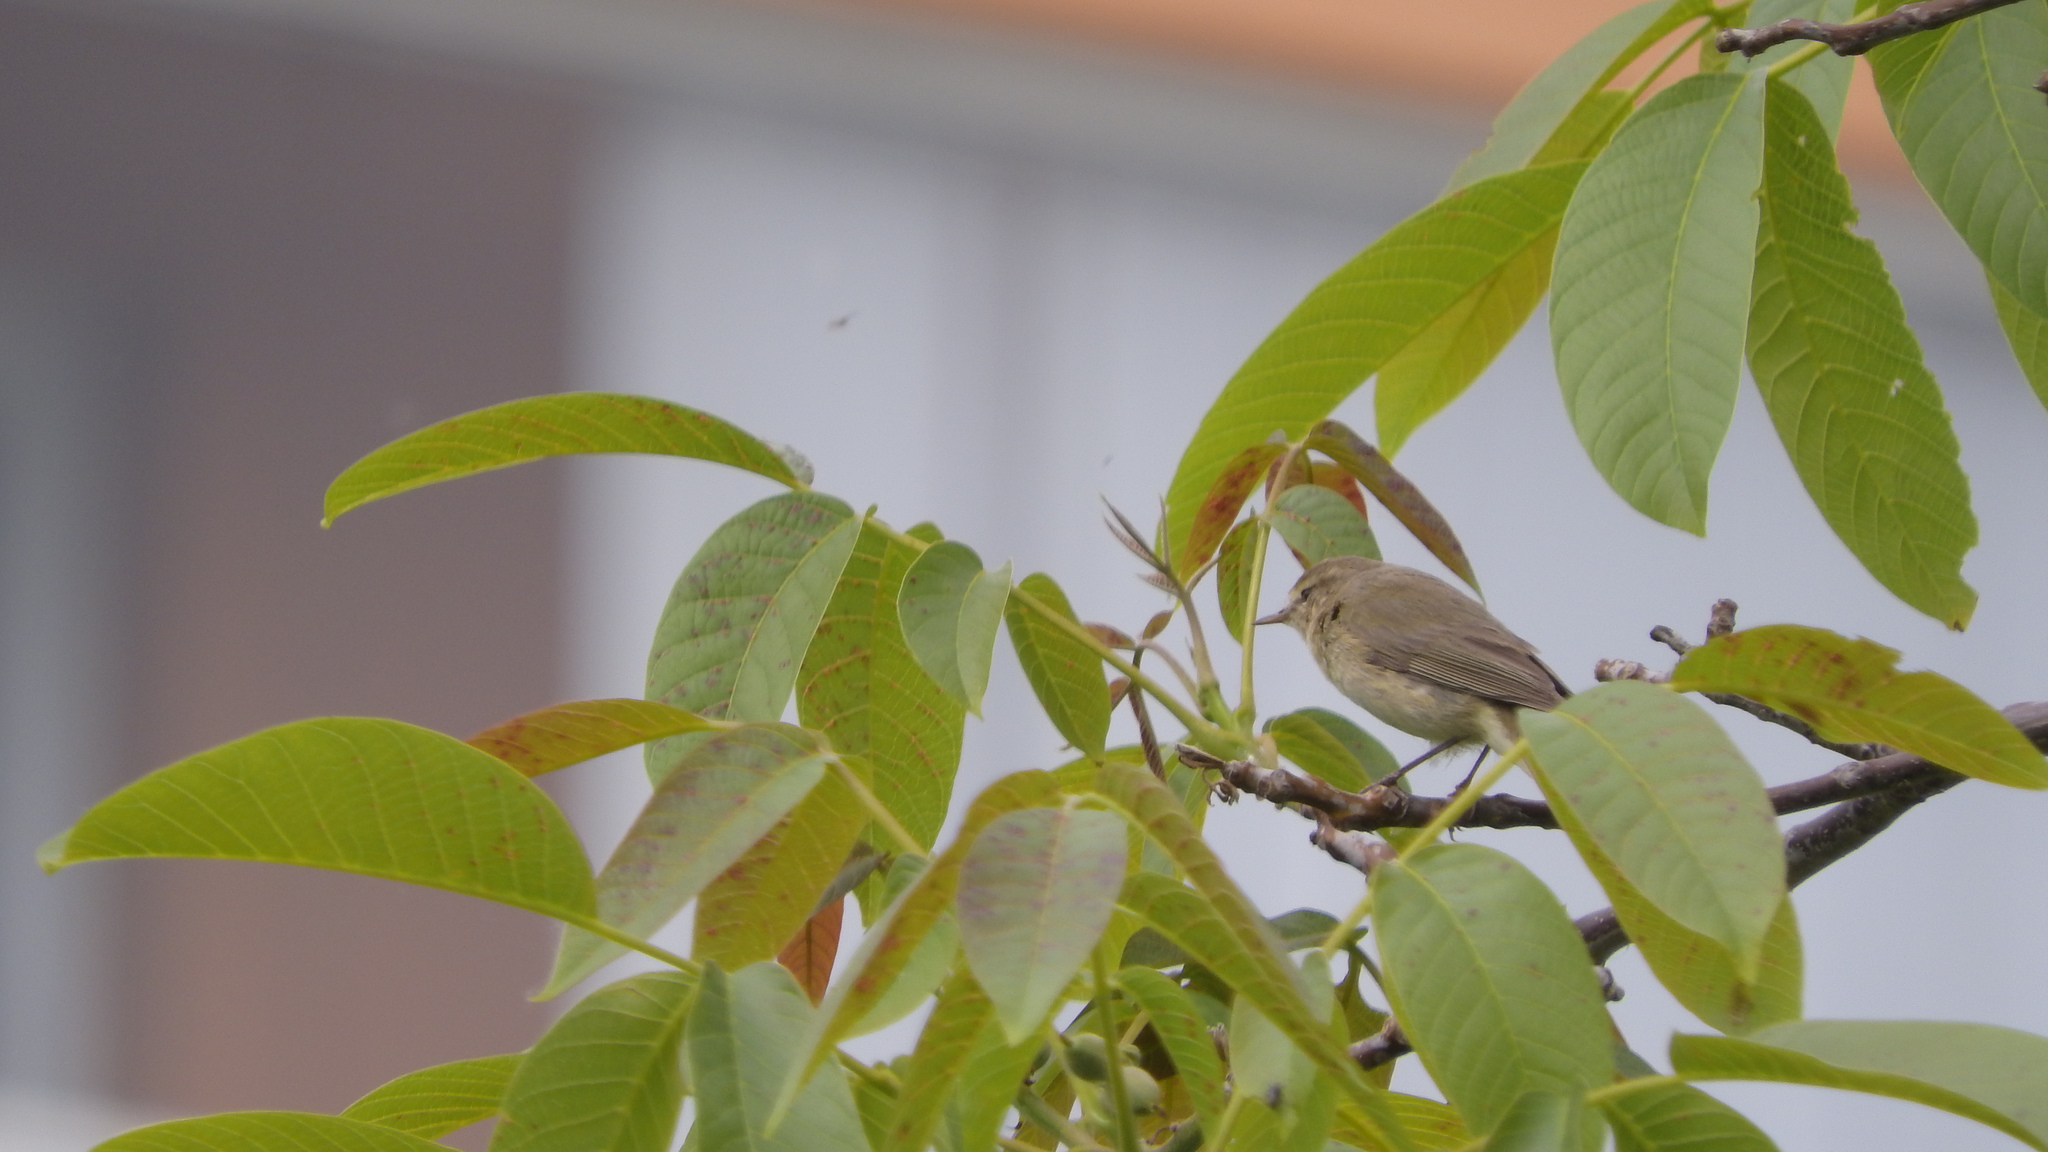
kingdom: Animalia
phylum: Chordata
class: Aves
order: Passeriformes
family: Phylloscopidae
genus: Phylloscopus
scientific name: Phylloscopus collybita
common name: Common chiffchaff
